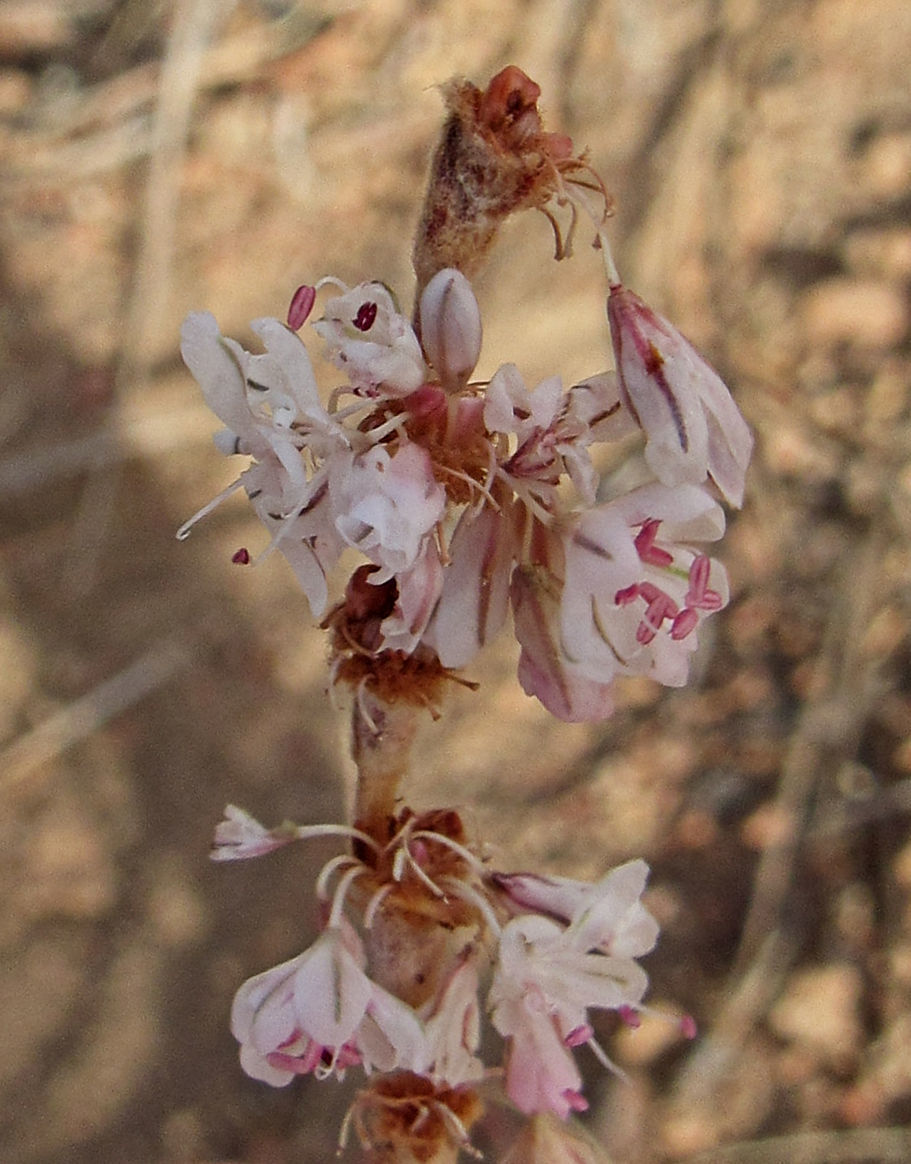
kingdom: Plantae
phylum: Tracheophyta
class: Magnoliopsida
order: Caryophyllales
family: Polygonaceae
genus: Eriogonum
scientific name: Eriogonum racemosum
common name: Redroot wild buckwheat
